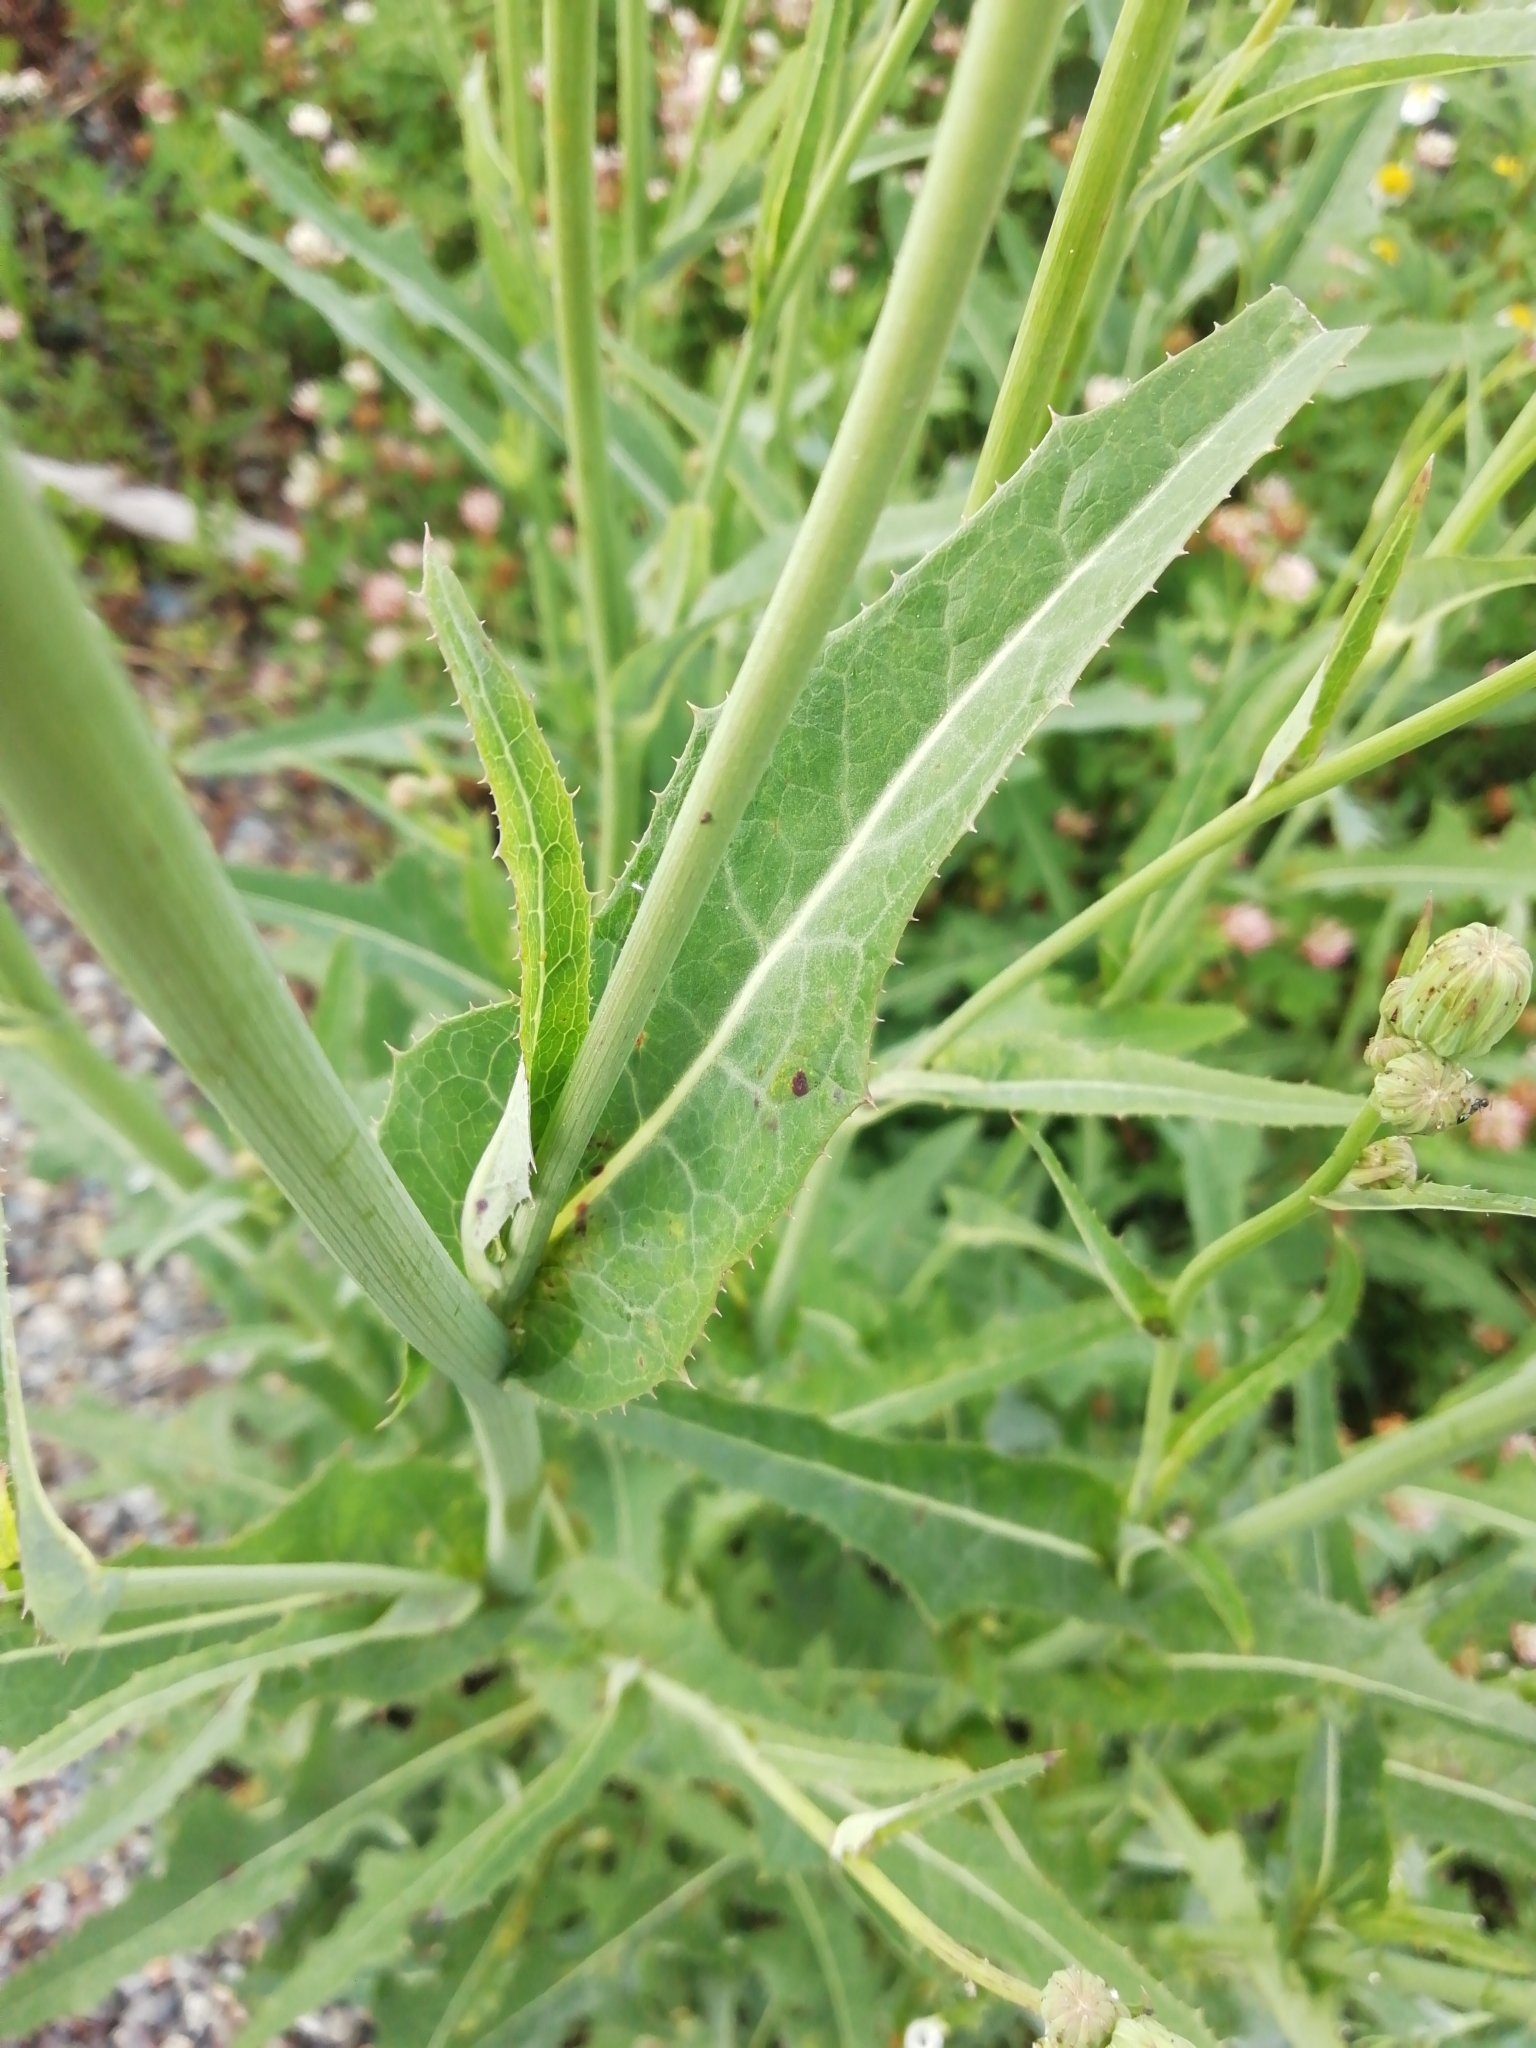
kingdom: Plantae
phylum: Tracheophyta
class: Magnoliopsida
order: Asterales
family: Asteraceae
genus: Sonchus
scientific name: Sonchus arvensis
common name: Perennial sow-thistle
